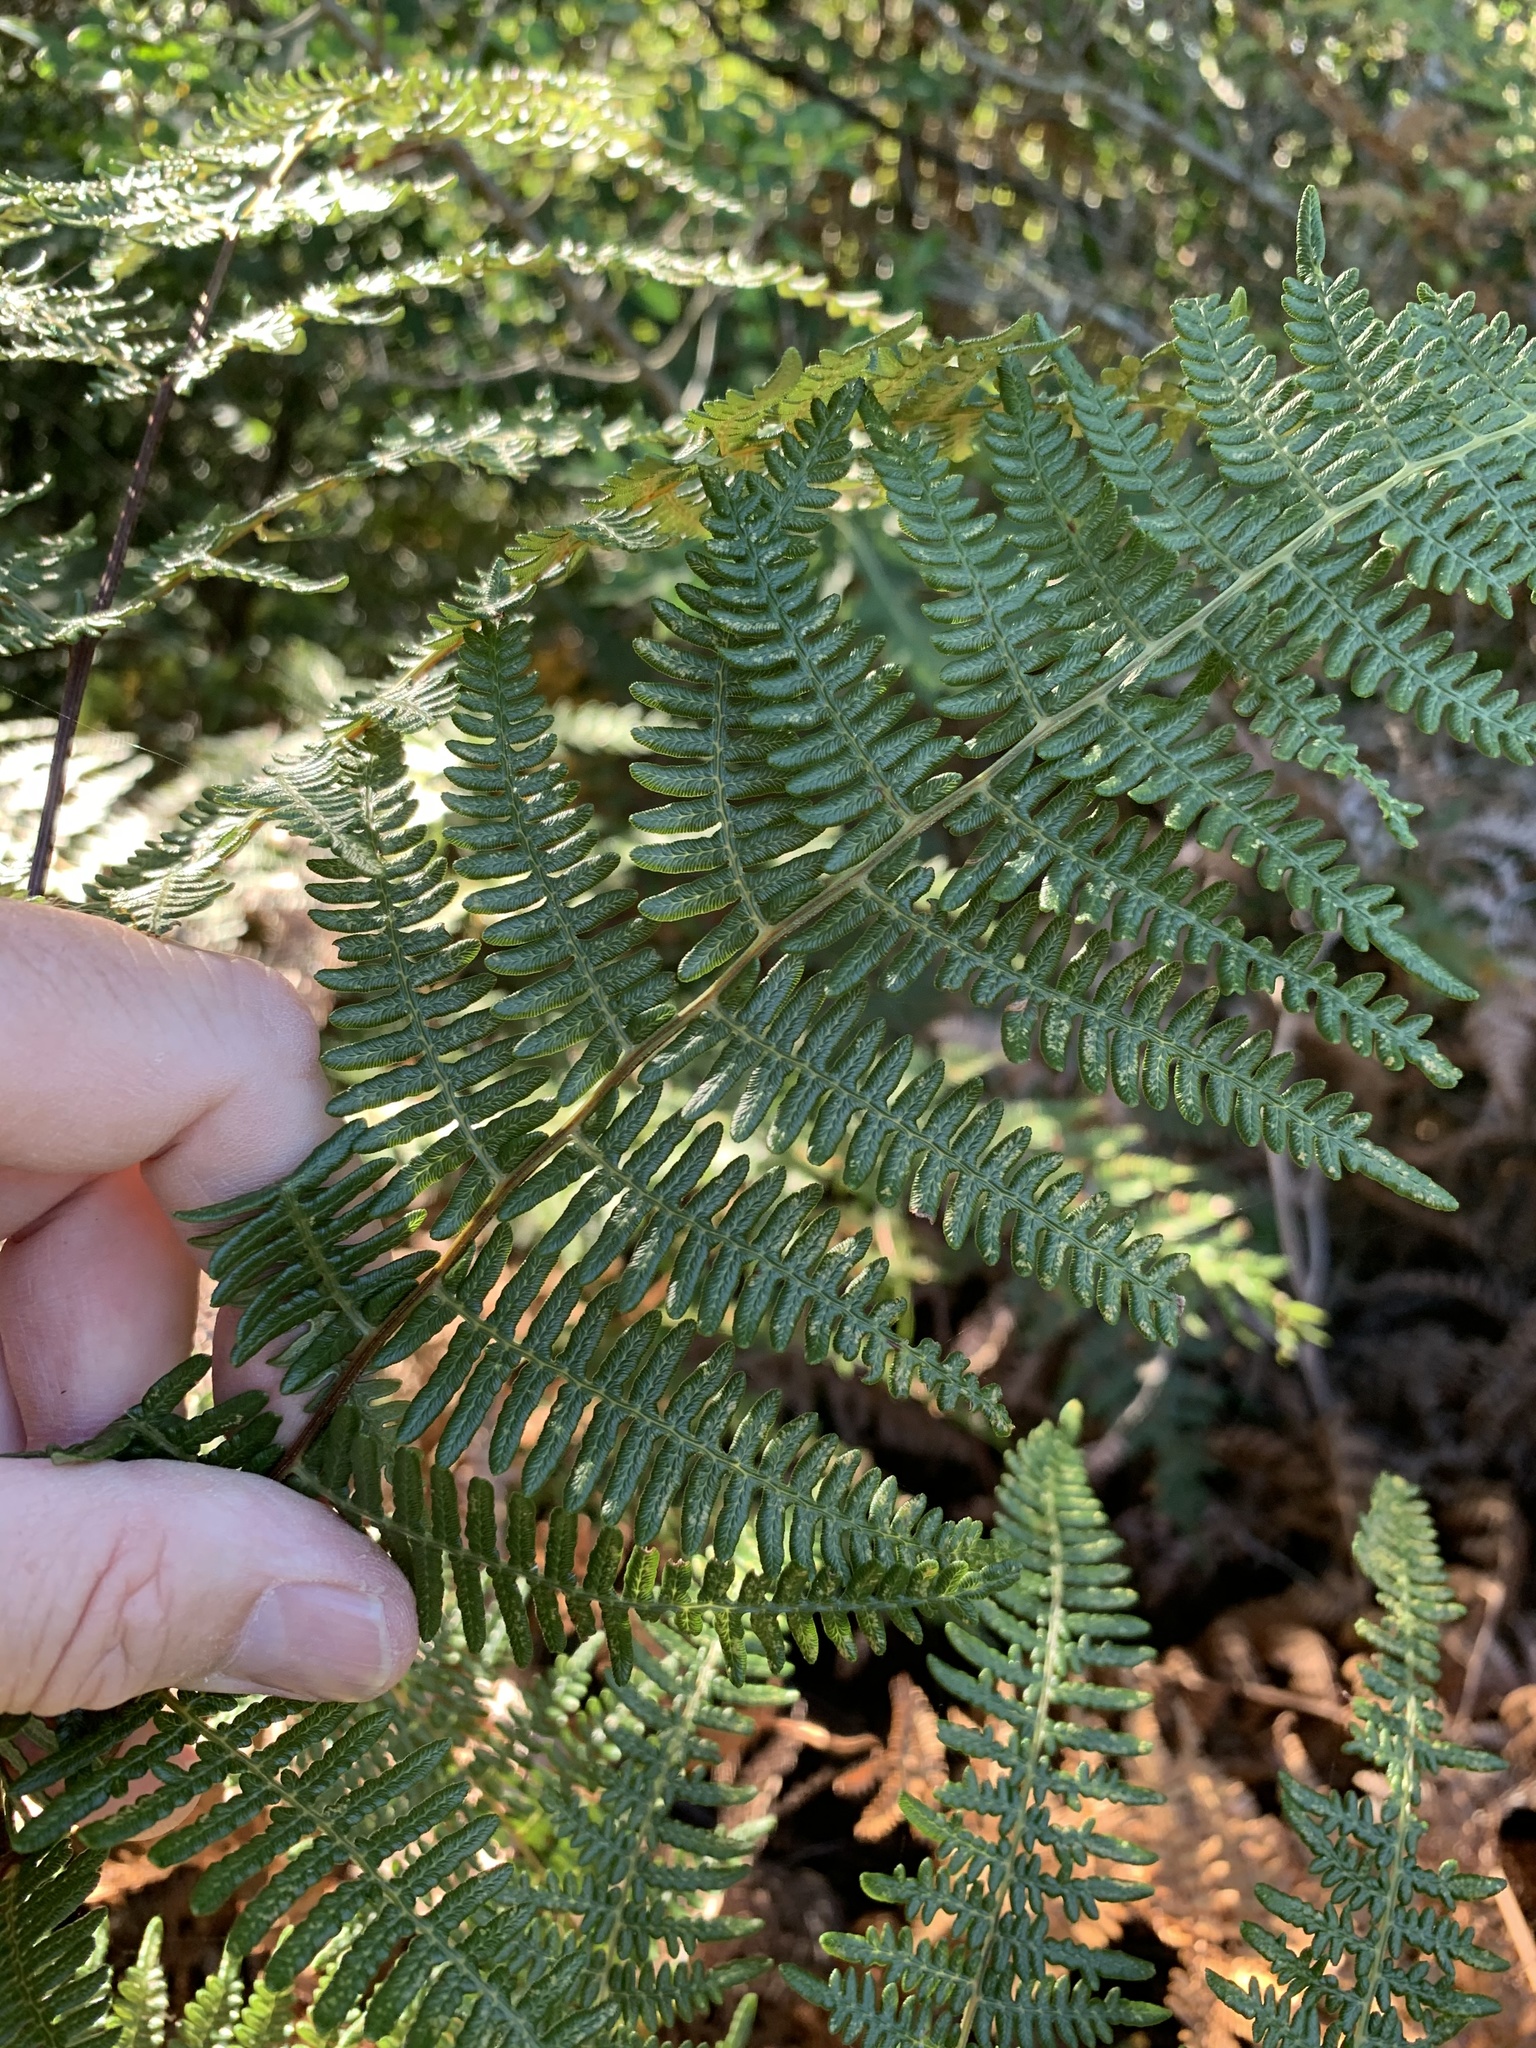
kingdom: Plantae
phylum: Tracheophyta
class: Polypodiopsida
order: Polypodiales
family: Dennstaedtiaceae
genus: Pteridium
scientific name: Pteridium aquilinum
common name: Bracken
